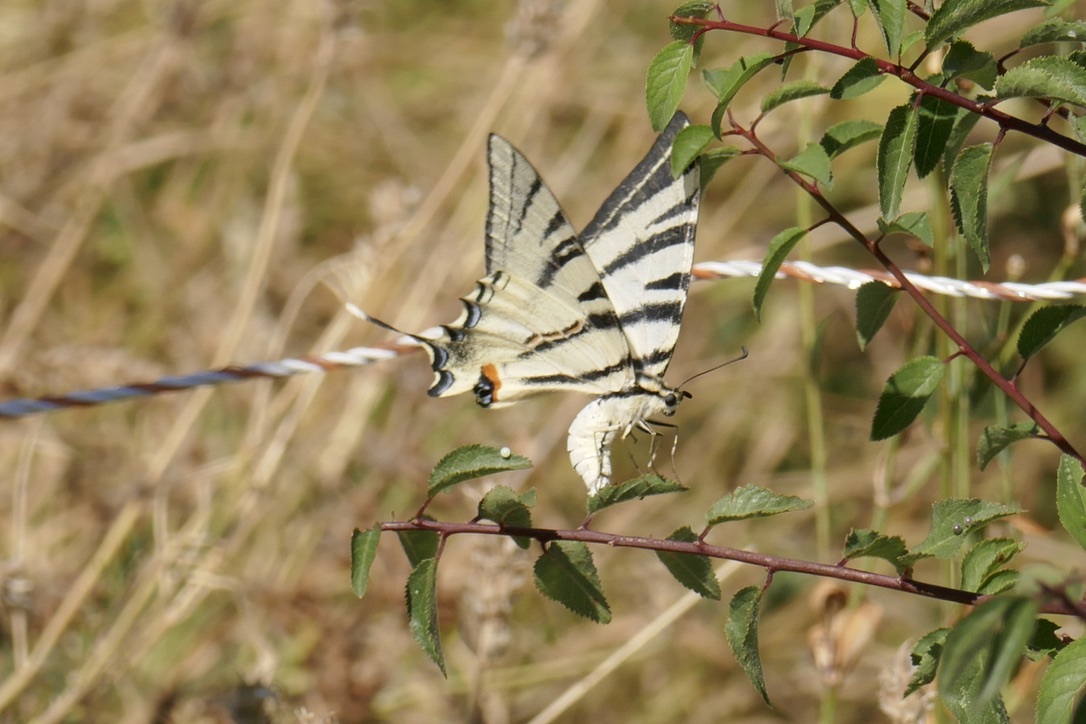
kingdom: Animalia
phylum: Arthropoda
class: Insecta
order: Lepidoptera
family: Papilionidae
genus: Iphiclides
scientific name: Iphiclides podalirius
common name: Scarce swallowtail
